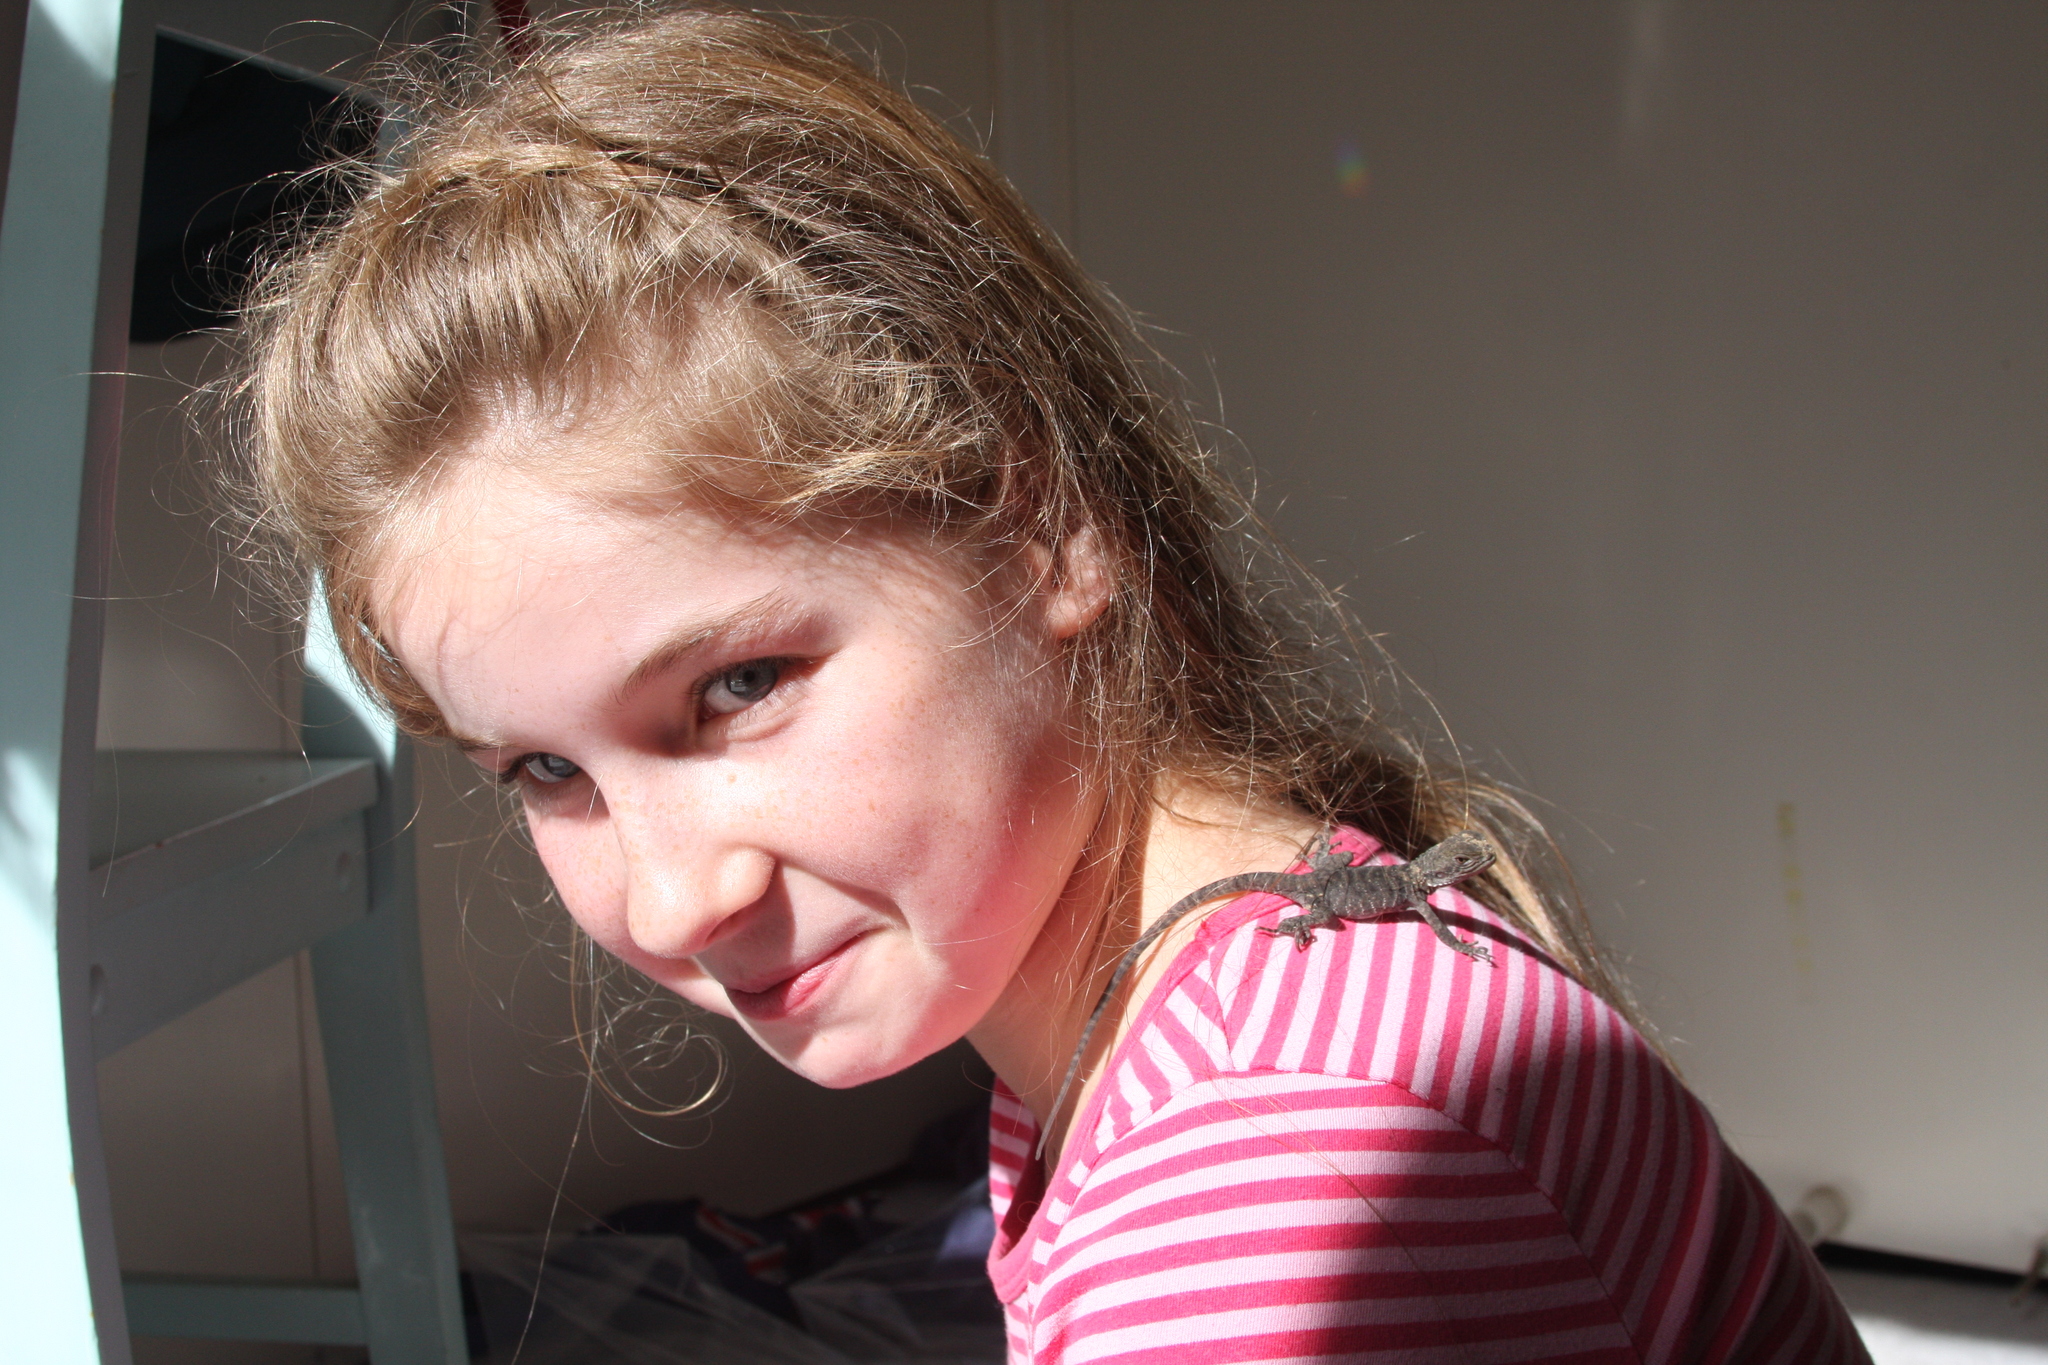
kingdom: Animalia
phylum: Chordata
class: Squamata
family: Agamidae
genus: Intellagama
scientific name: Intellagama lesueurii
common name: Eastern water dragon
